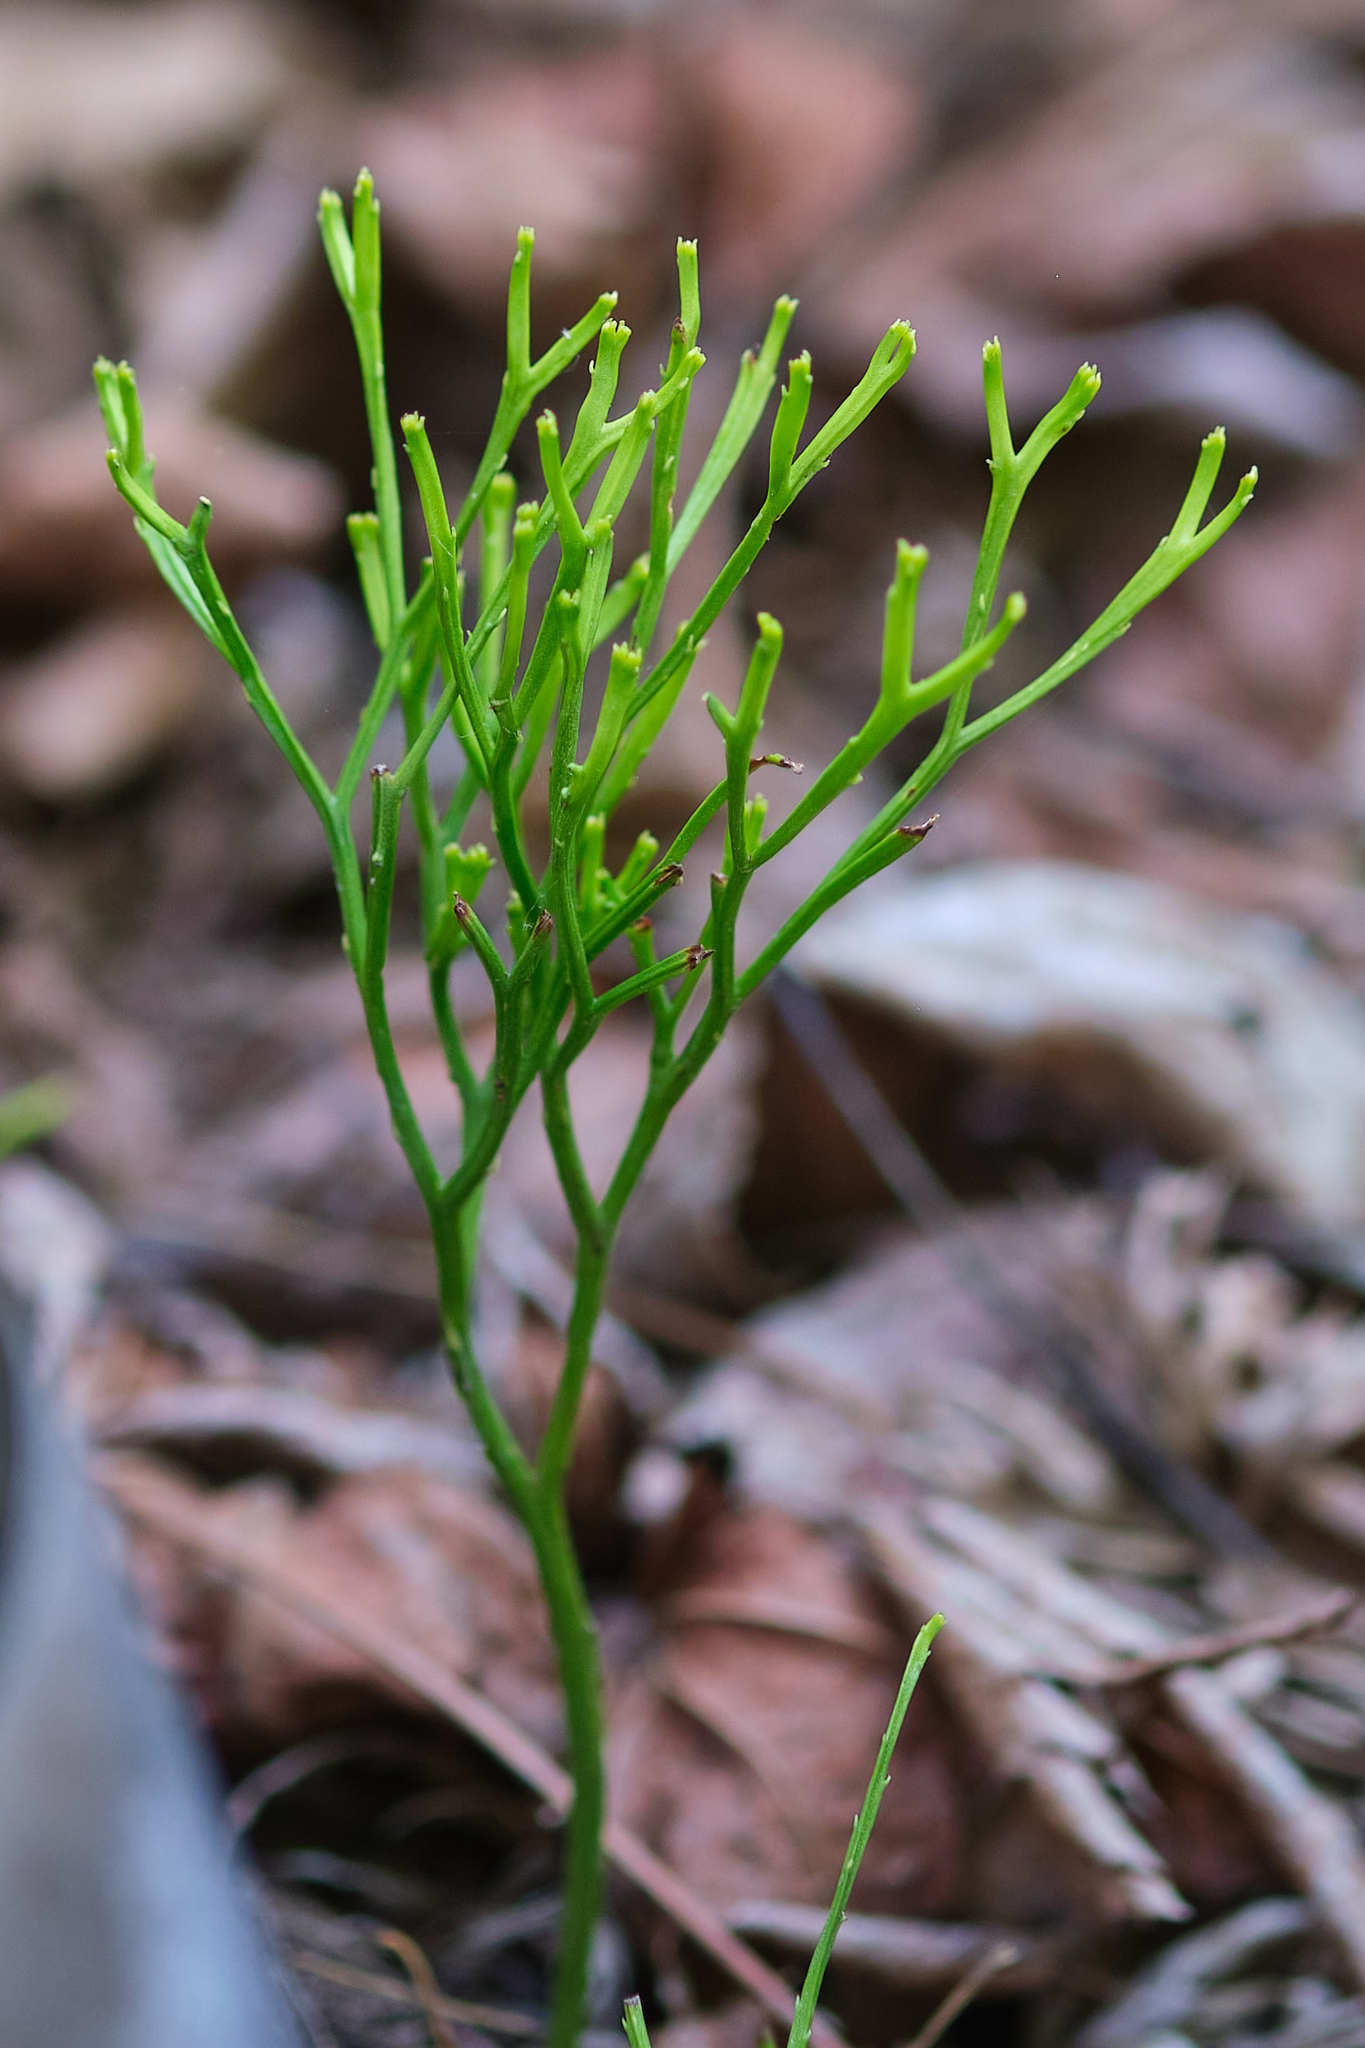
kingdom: Plantae
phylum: Tracheophyta
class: Polypodiopsida
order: Psilotales
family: Psilotaceae
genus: Psilotum
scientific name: Psilotum nudum
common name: Skeleton fork fern
